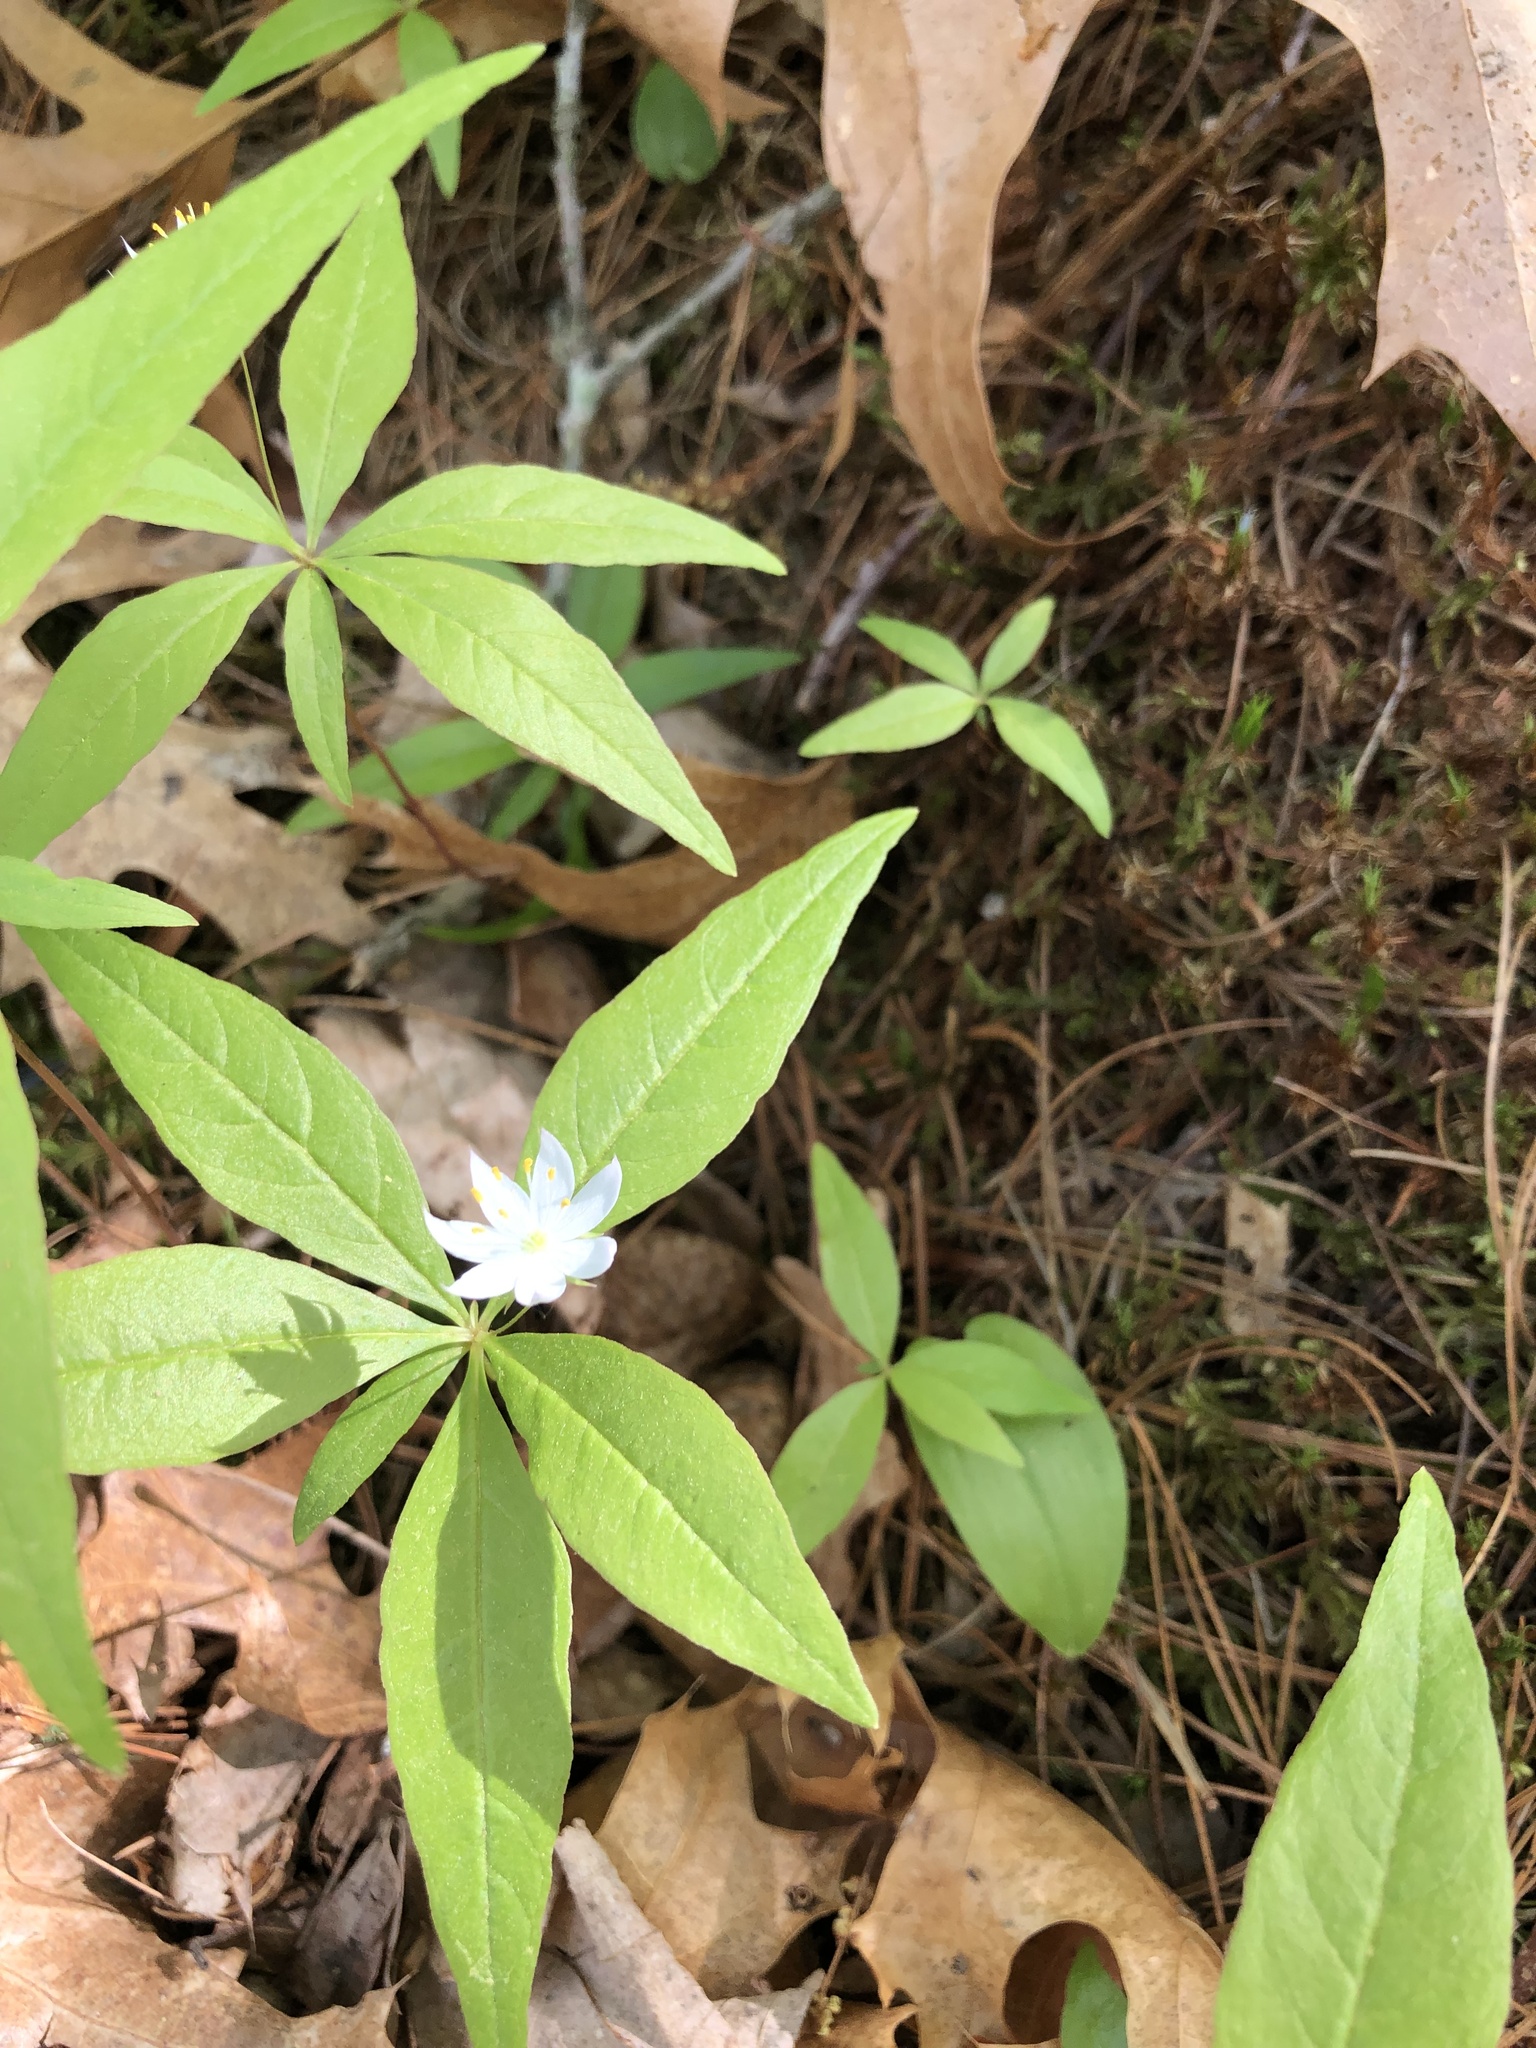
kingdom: Plantae
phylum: Tracheophyta
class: Magnoliopsida
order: Ericales
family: Primulaceae
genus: Lysimachia
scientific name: Lysimachia borealis
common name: American starflower
